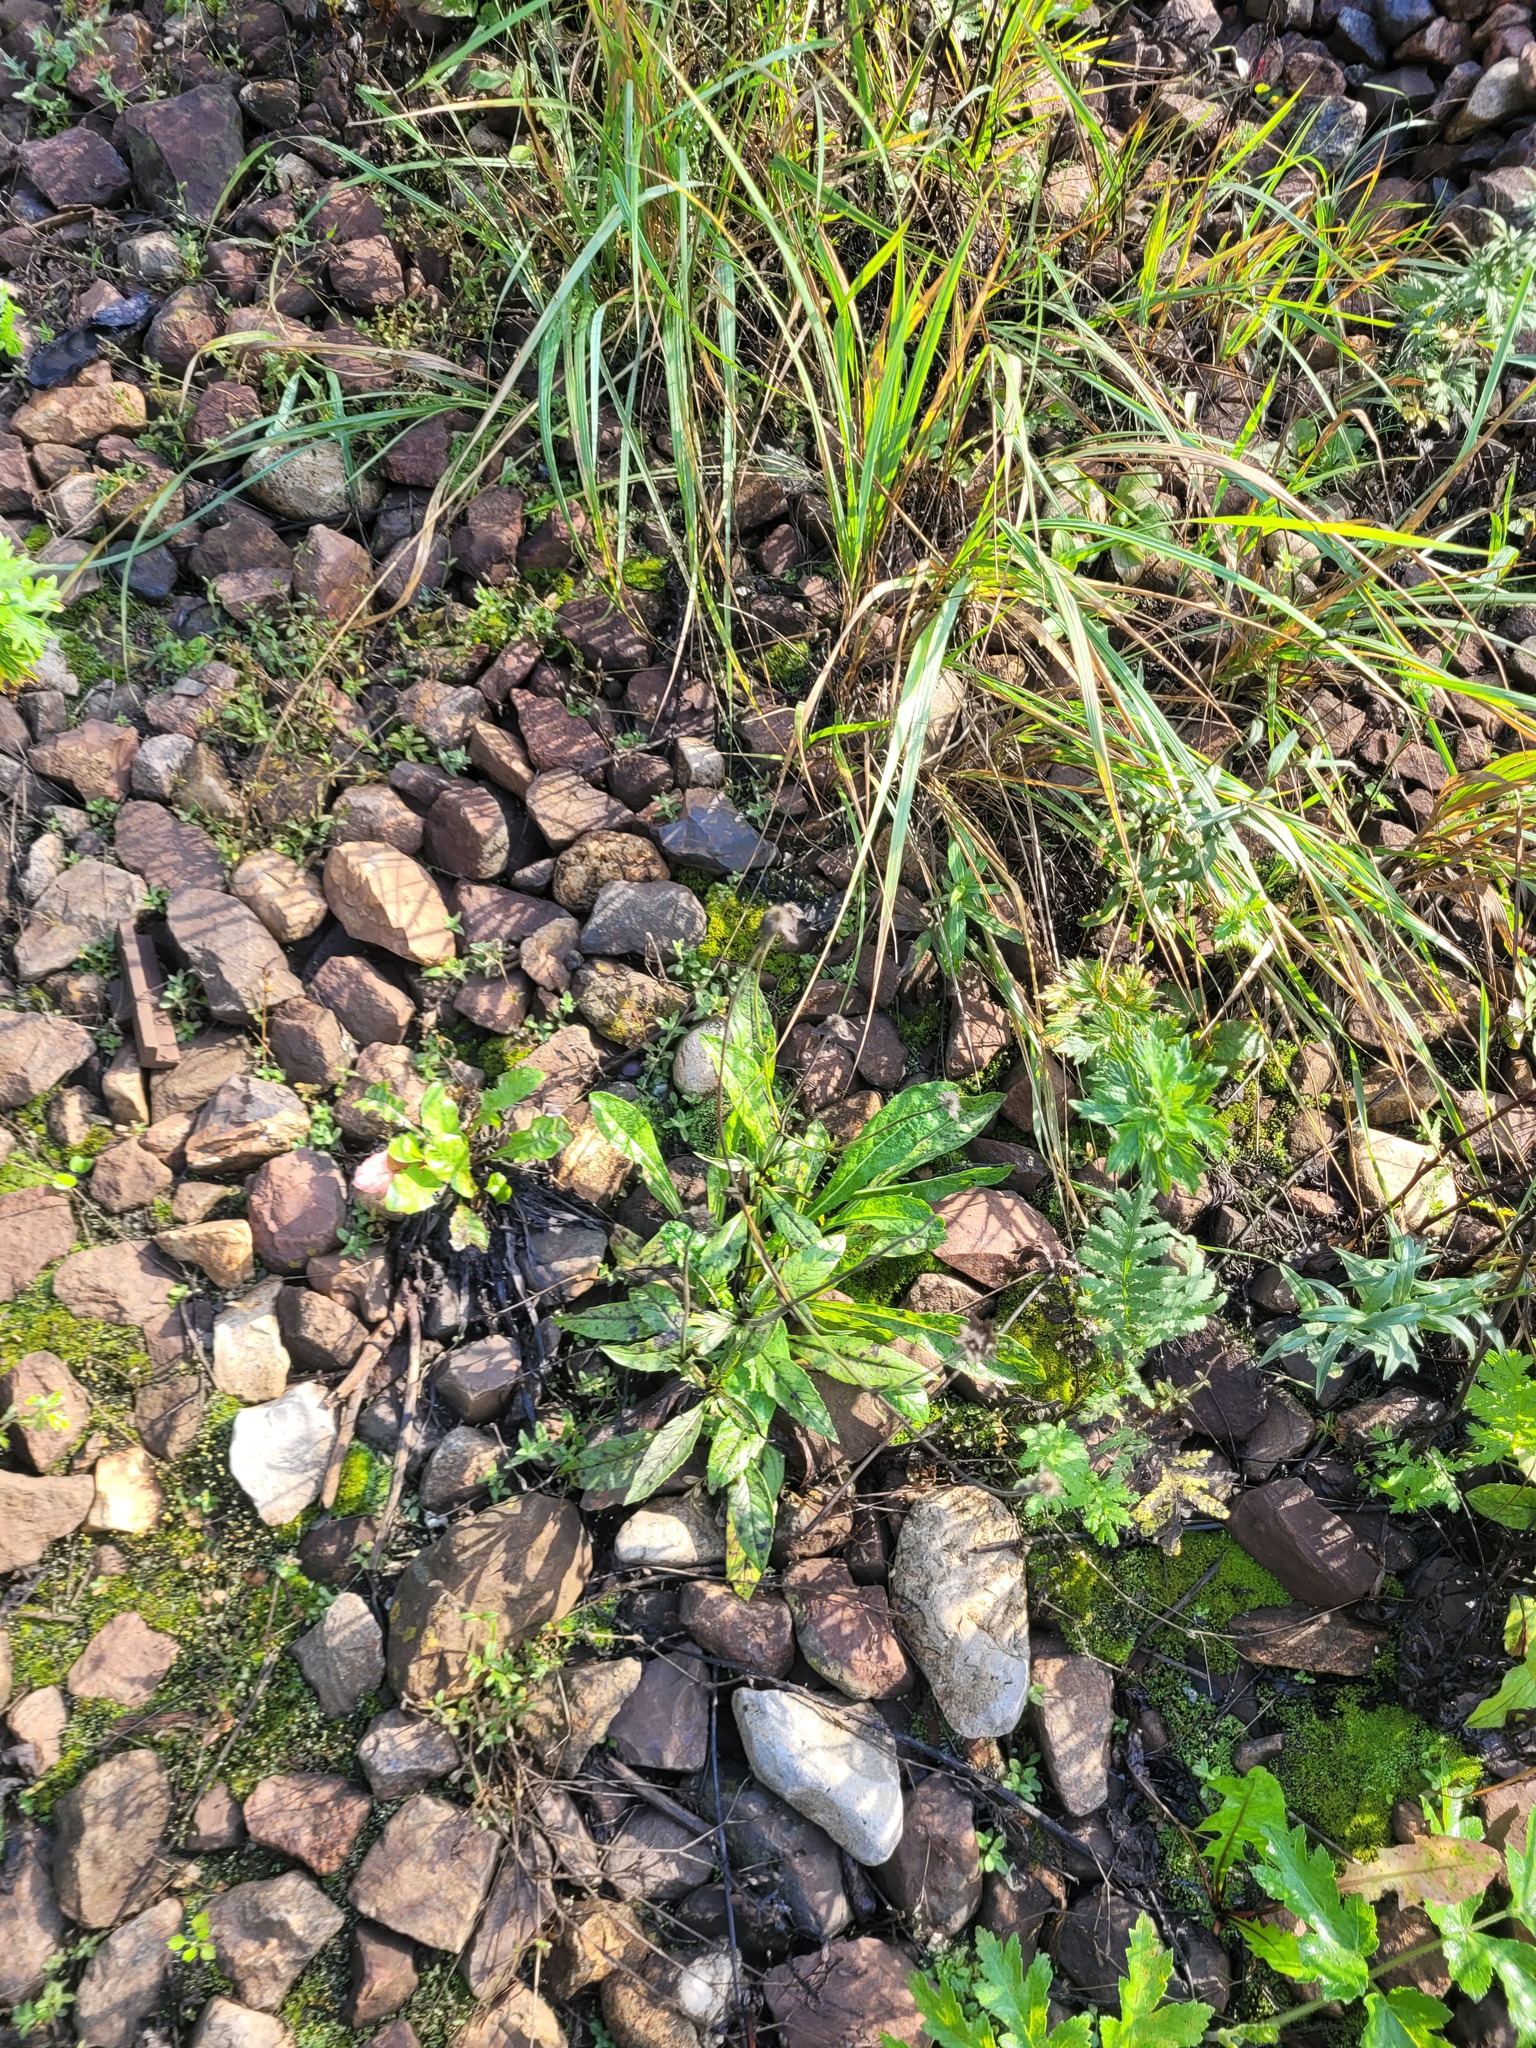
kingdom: Plantae
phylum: Tracheophyta
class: Magnoliopsida
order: Dipsacales
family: Caprifoliaceae
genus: Knautia
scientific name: Knautia arvensis
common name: Field scabiosa
